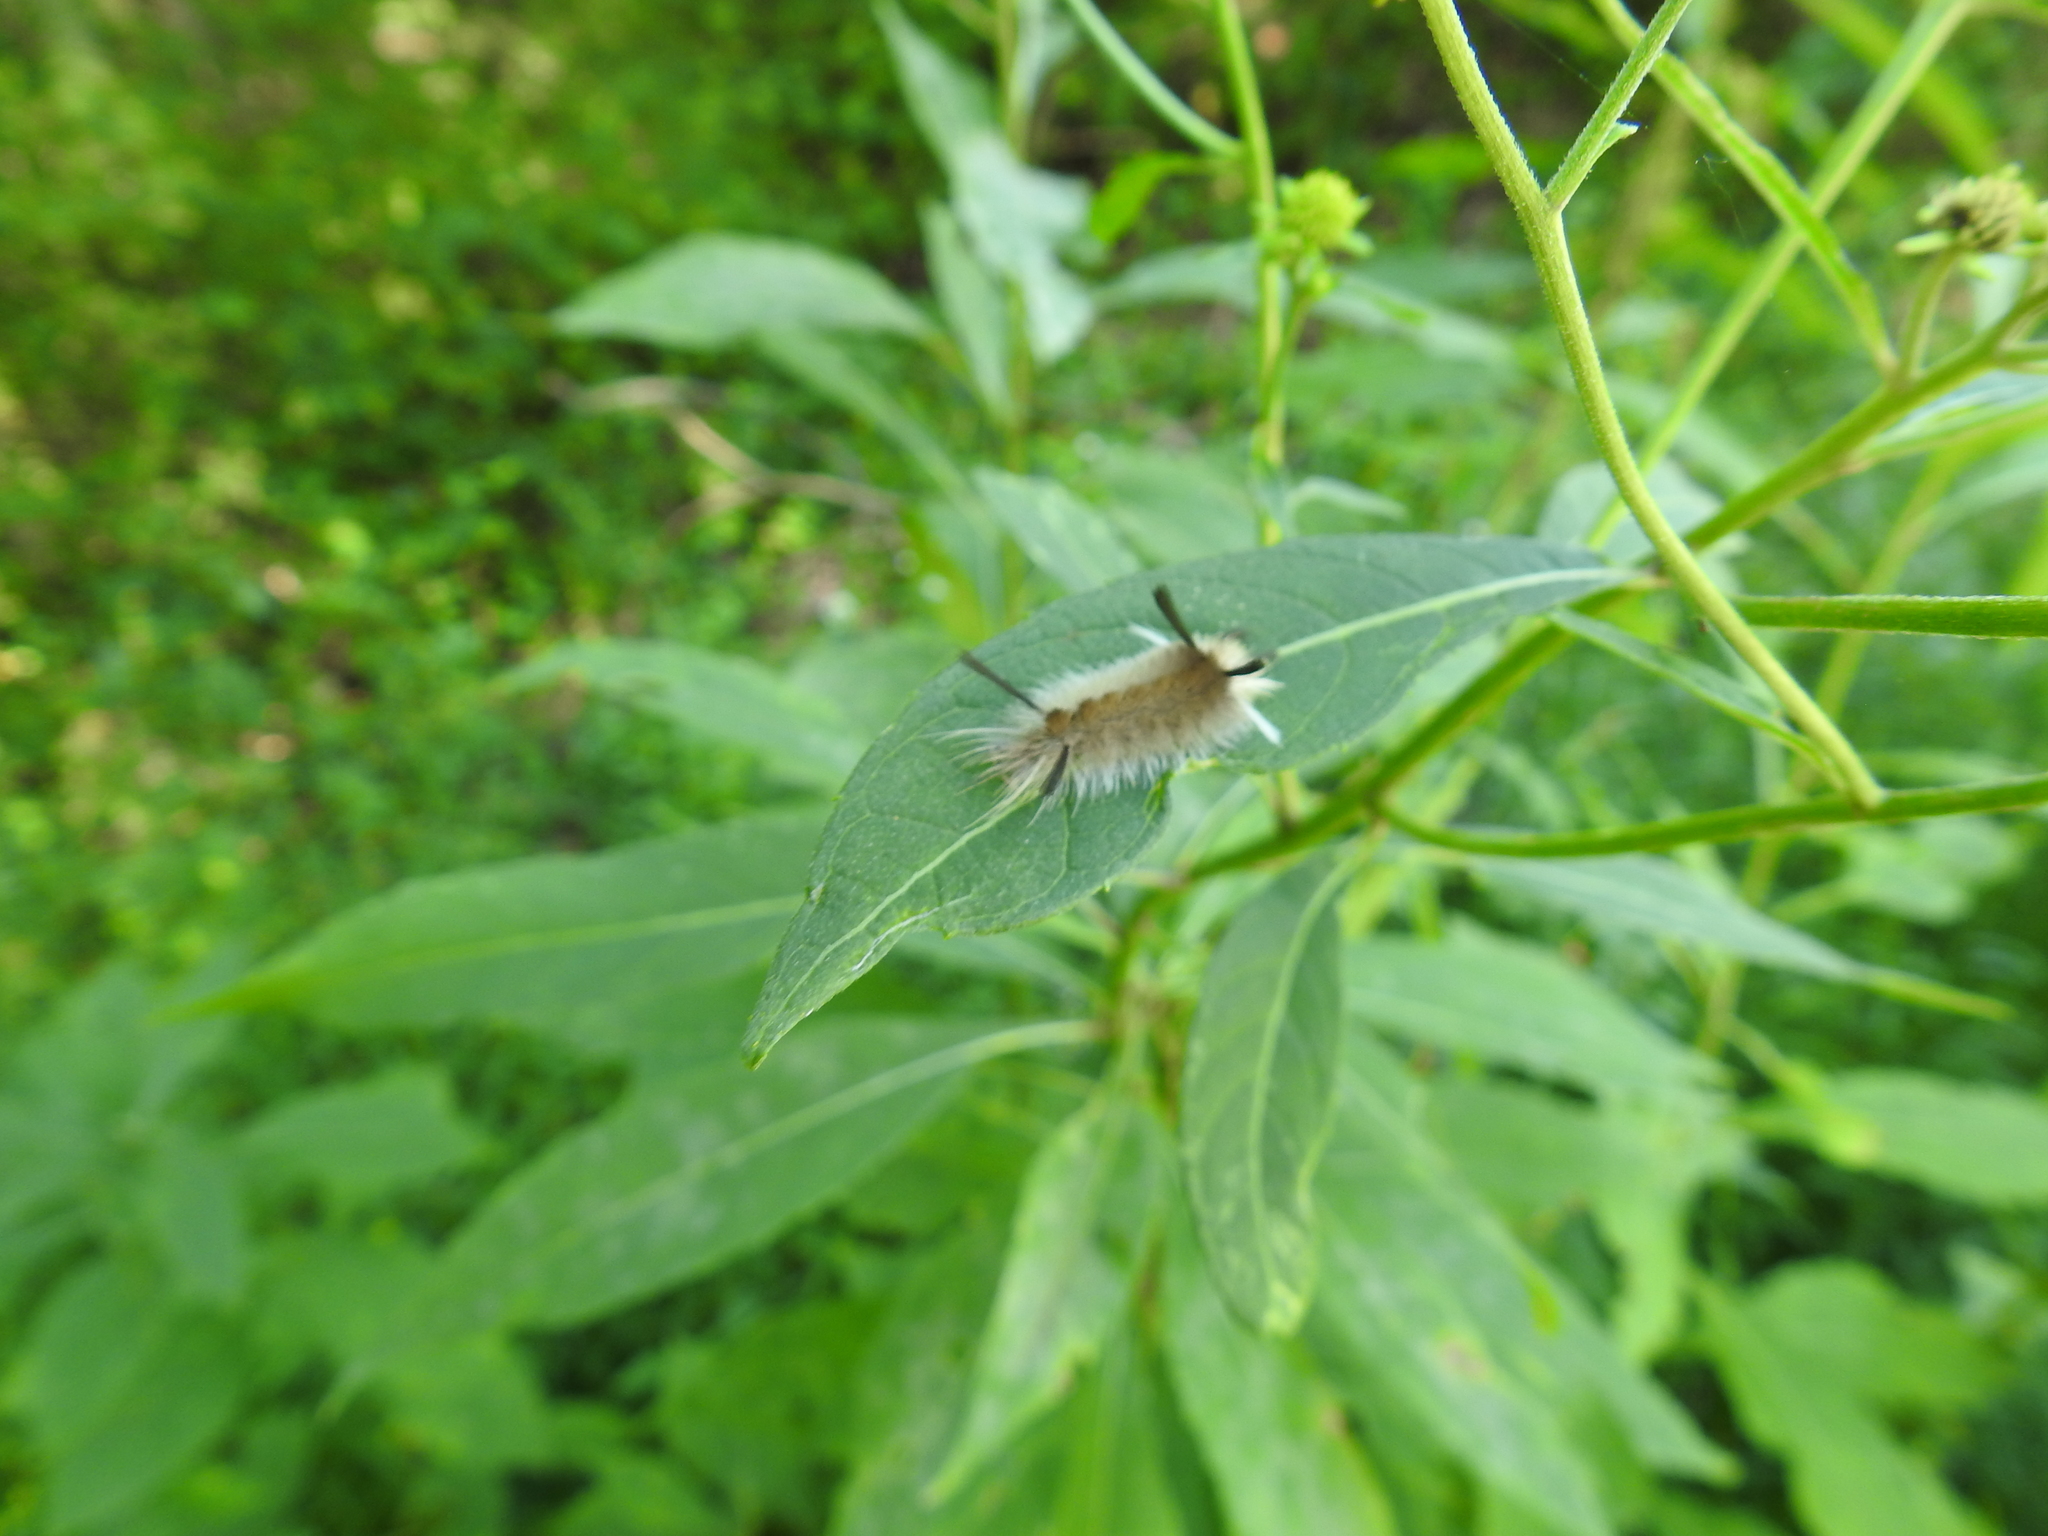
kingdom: Animalia
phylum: Arthropoda
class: Insecta
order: Lepidoptera
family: Erebidae
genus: Halysidota
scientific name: Halysidota tessellaris
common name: Banded tussock moth
